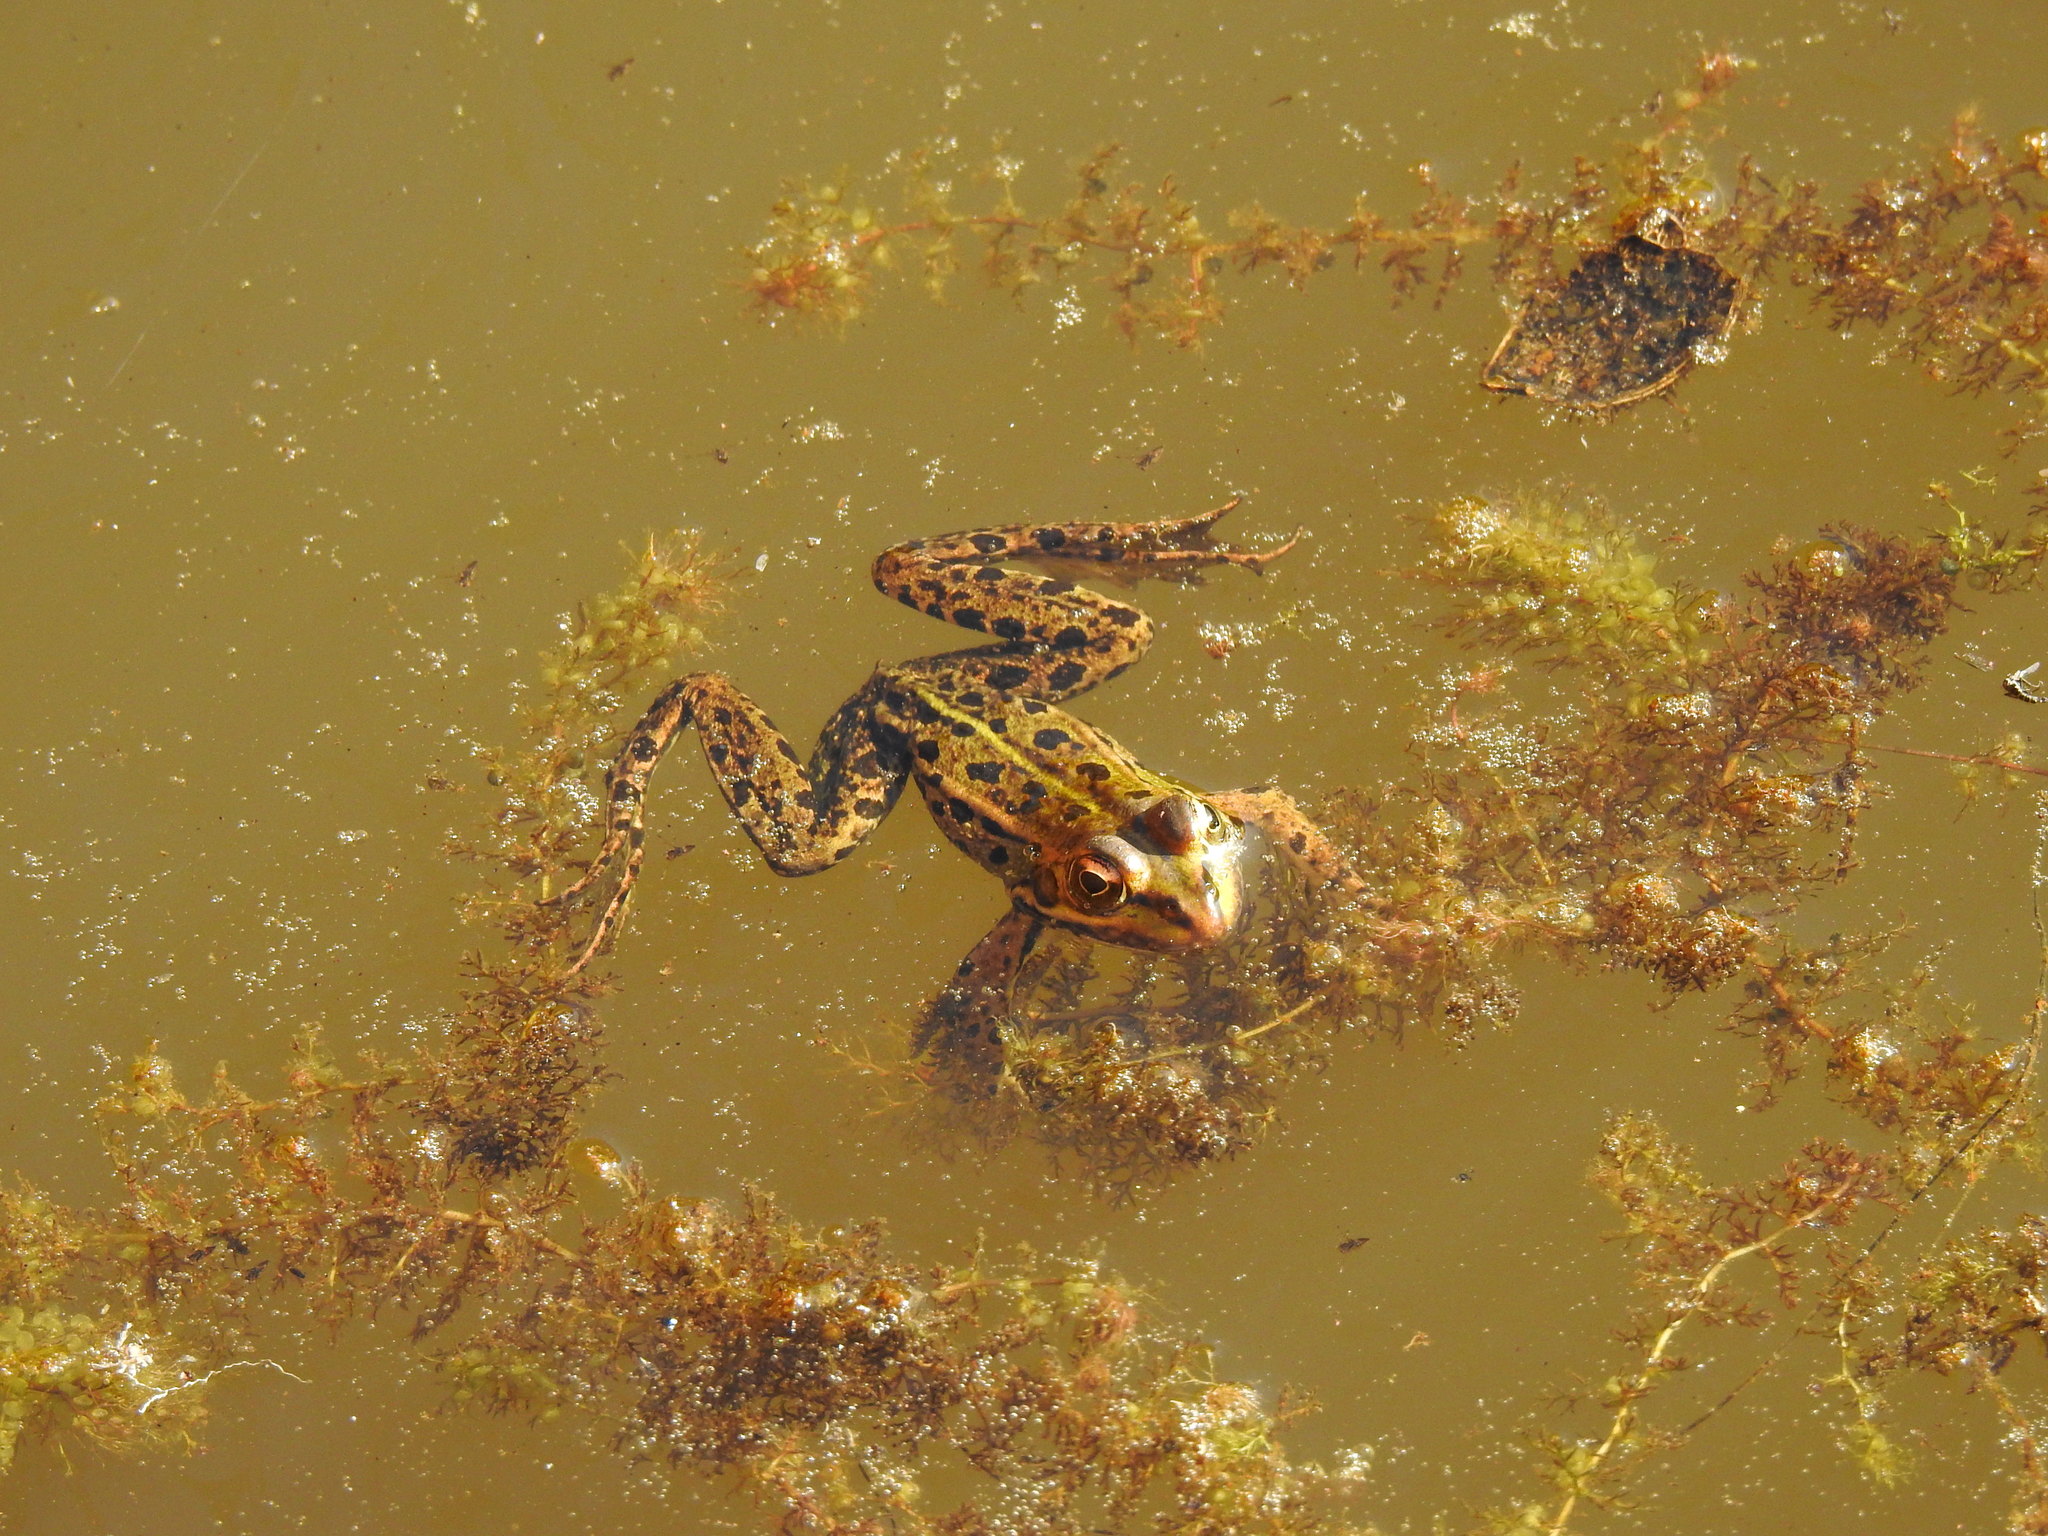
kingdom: Animalia
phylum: Chordata
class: Amphibia
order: Anura
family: Ranidae
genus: Pelophylax
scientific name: Pelophylax perezi
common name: Perez's frog
